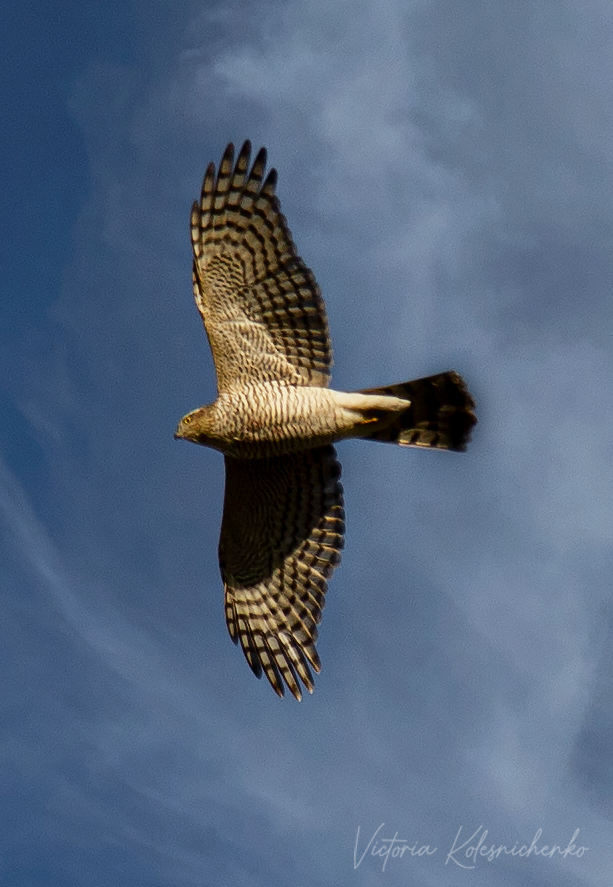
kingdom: Animalia
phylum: Chordata
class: Aves
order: Accipitriformes
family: Accipitridae
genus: Accipiter
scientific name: Accipiter nisus
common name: Eurasian sparrowhawk
